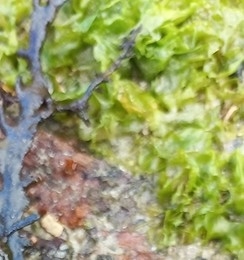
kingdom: Plantae
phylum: Chlorophyta
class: Ulvophyceae
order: Ulvales
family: Ulvaceae
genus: Ulva
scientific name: Ulva lactuca
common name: Sea lettuce
